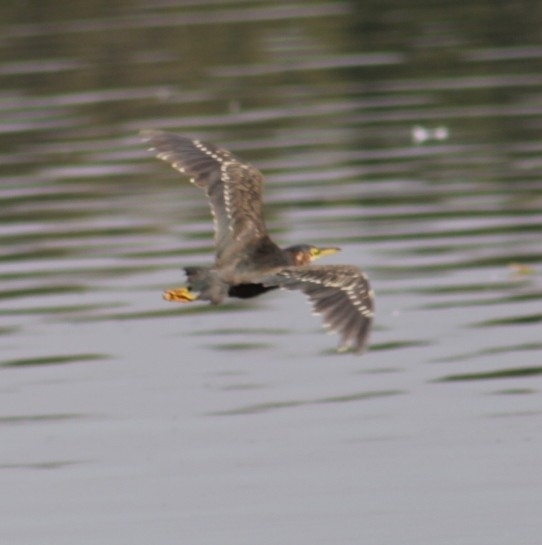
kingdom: Animalia
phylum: Chordata
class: Aves
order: Pelecaniformes
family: Ardeidae
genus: Butorides
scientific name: Butorides virescens
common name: Green heron
